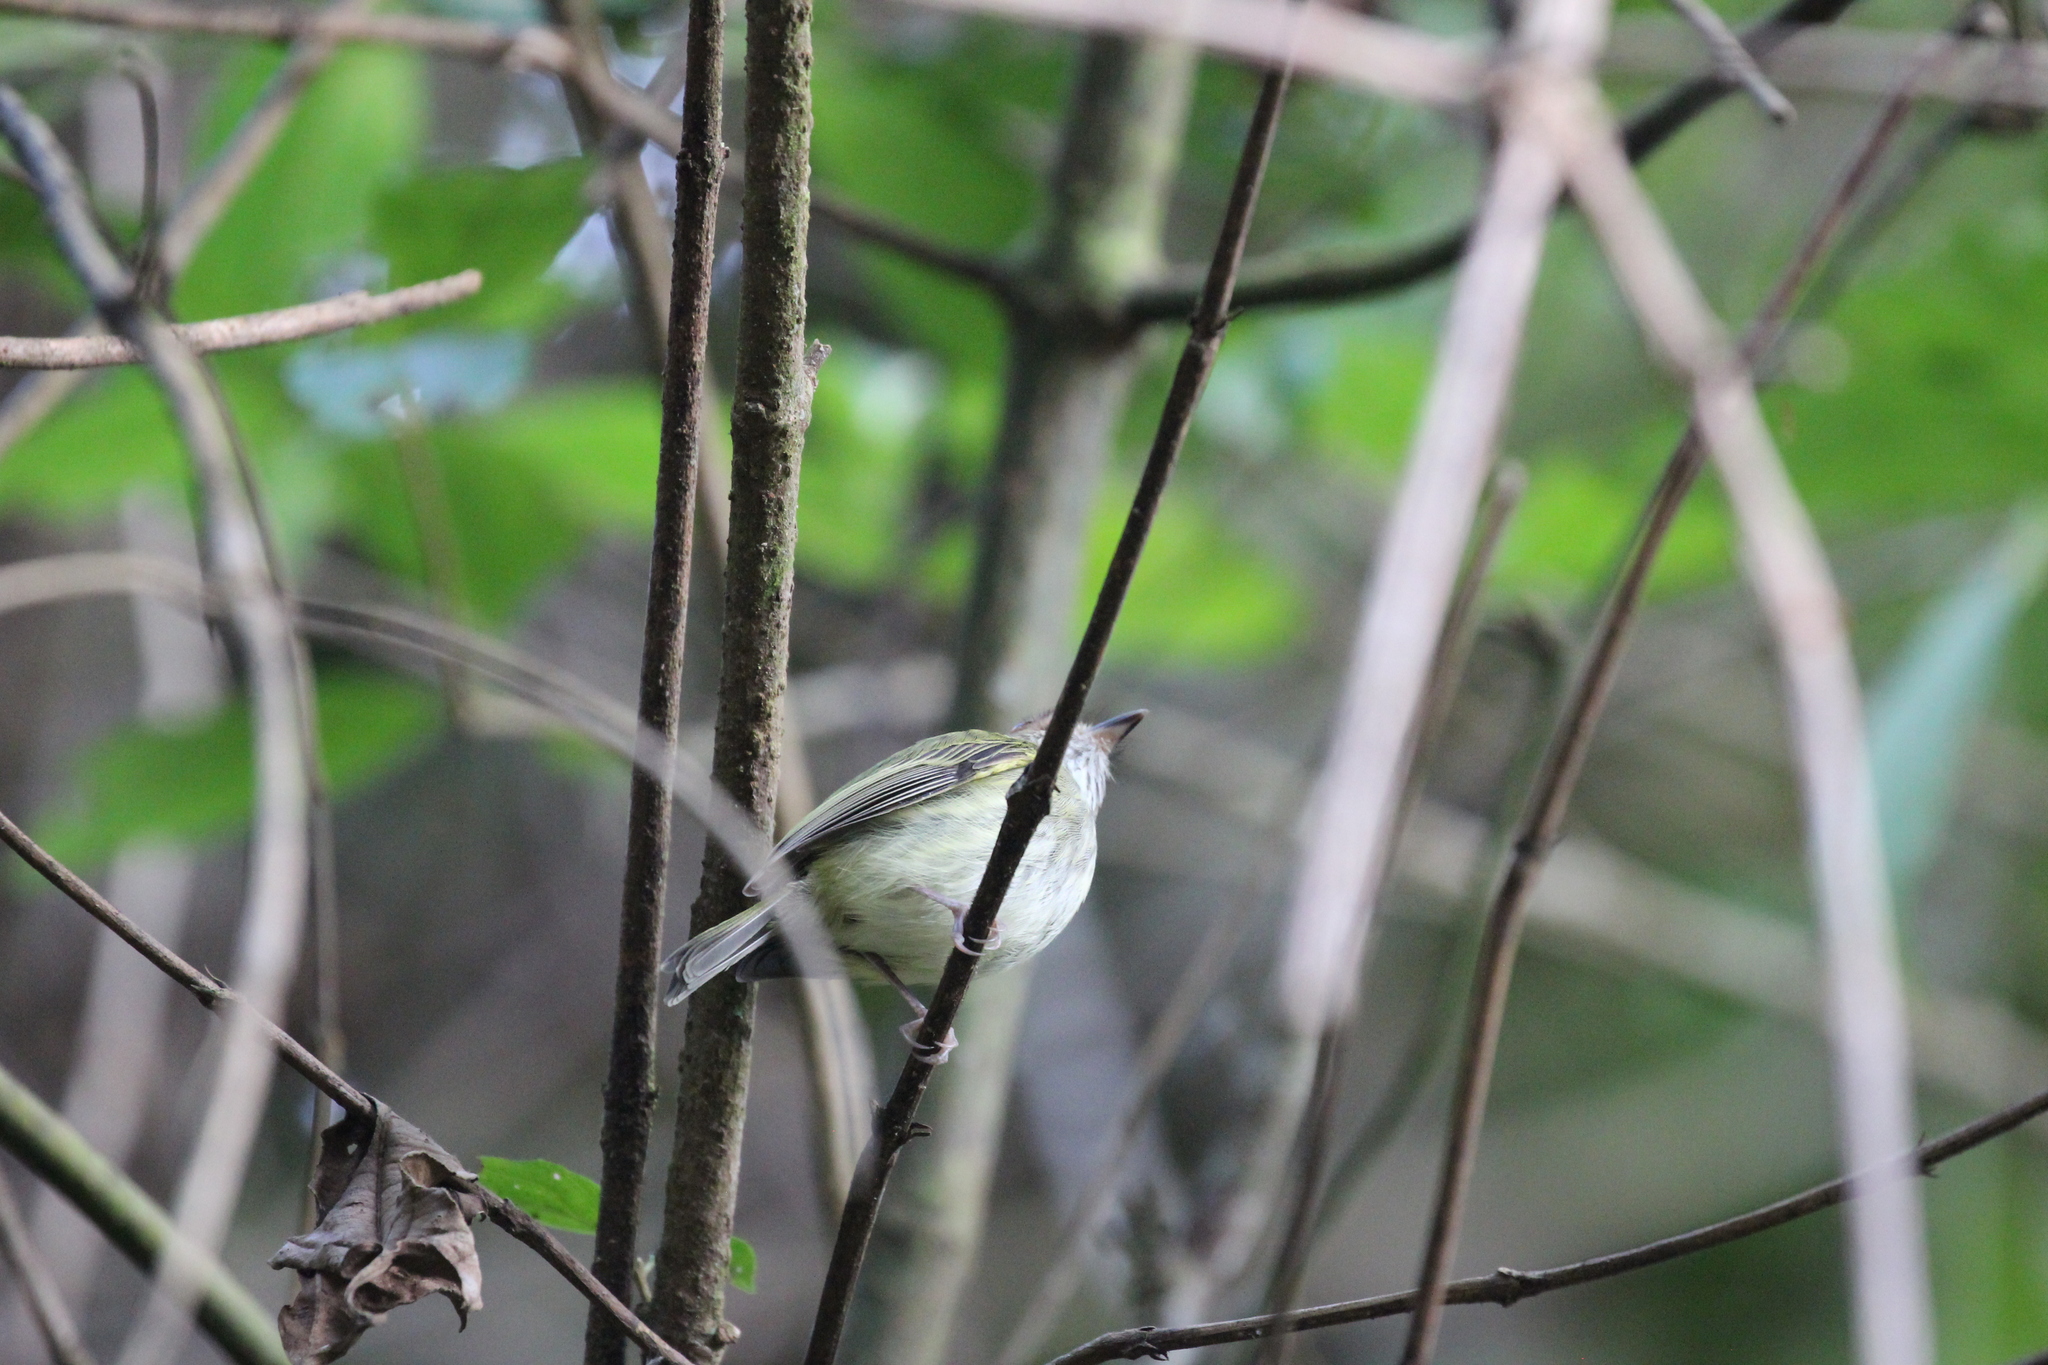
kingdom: Animalia
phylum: Chordata
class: Aves
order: Passeriformes
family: Tyrannidae
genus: Lophotriccus
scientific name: Lophotriccus pileatus
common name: Scale-crested pygmy-tyrant
